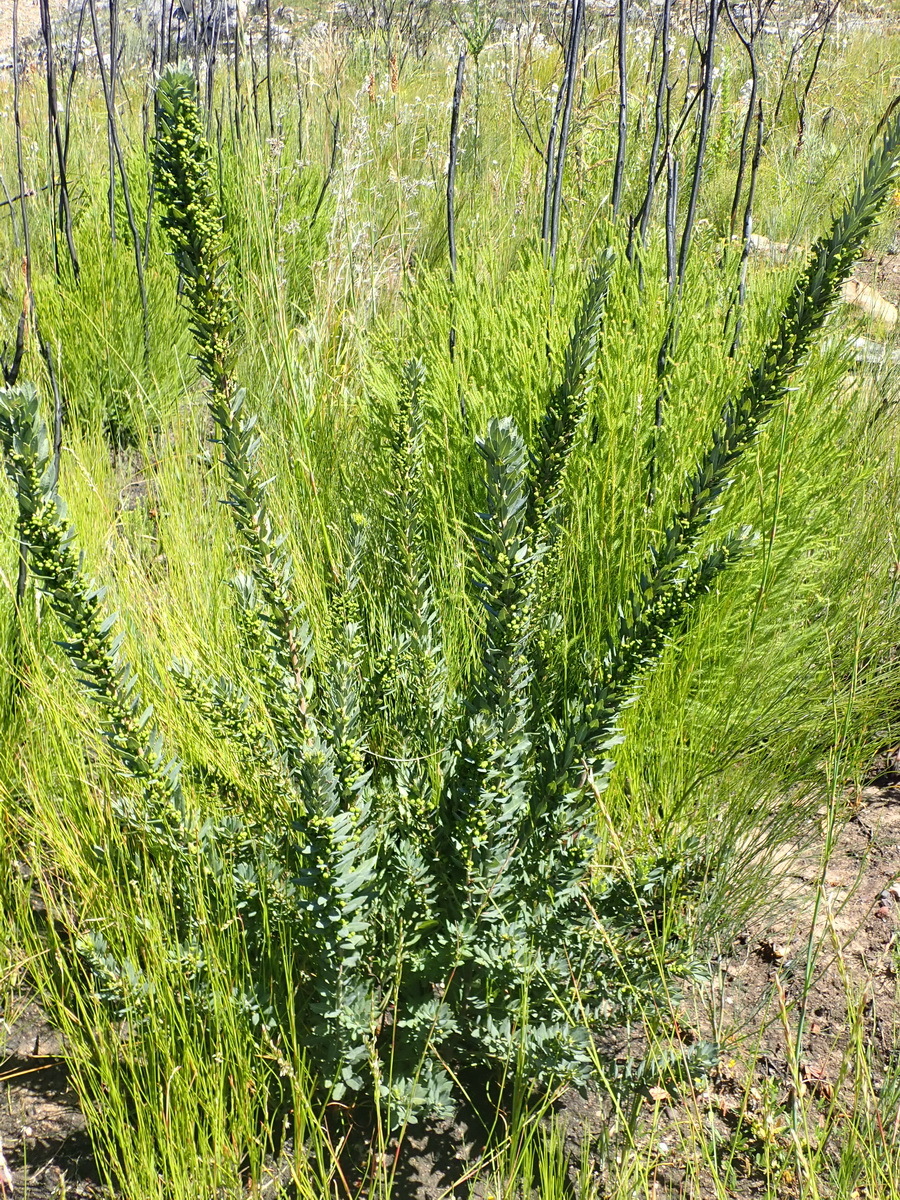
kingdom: Plantae
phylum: Tracheophyta
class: Magnoliopsida
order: Fagales
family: Myricaceae
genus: Morella
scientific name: Morella humilis
